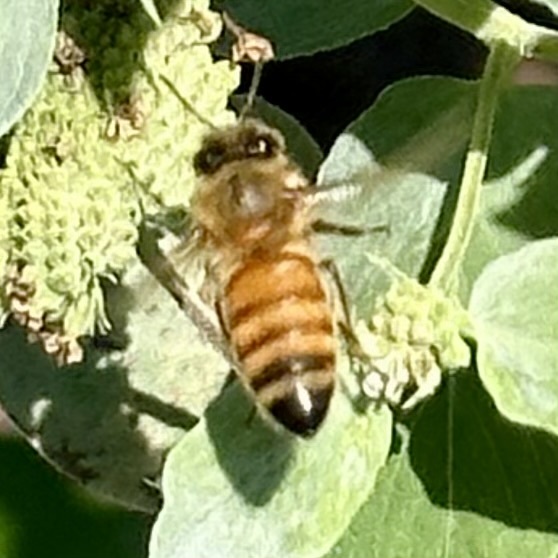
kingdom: Animalia
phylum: Arthropoda
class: Insecta
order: Hymenoptera
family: Apidae
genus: Apis
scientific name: Apis mellifera
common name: Honey bee
